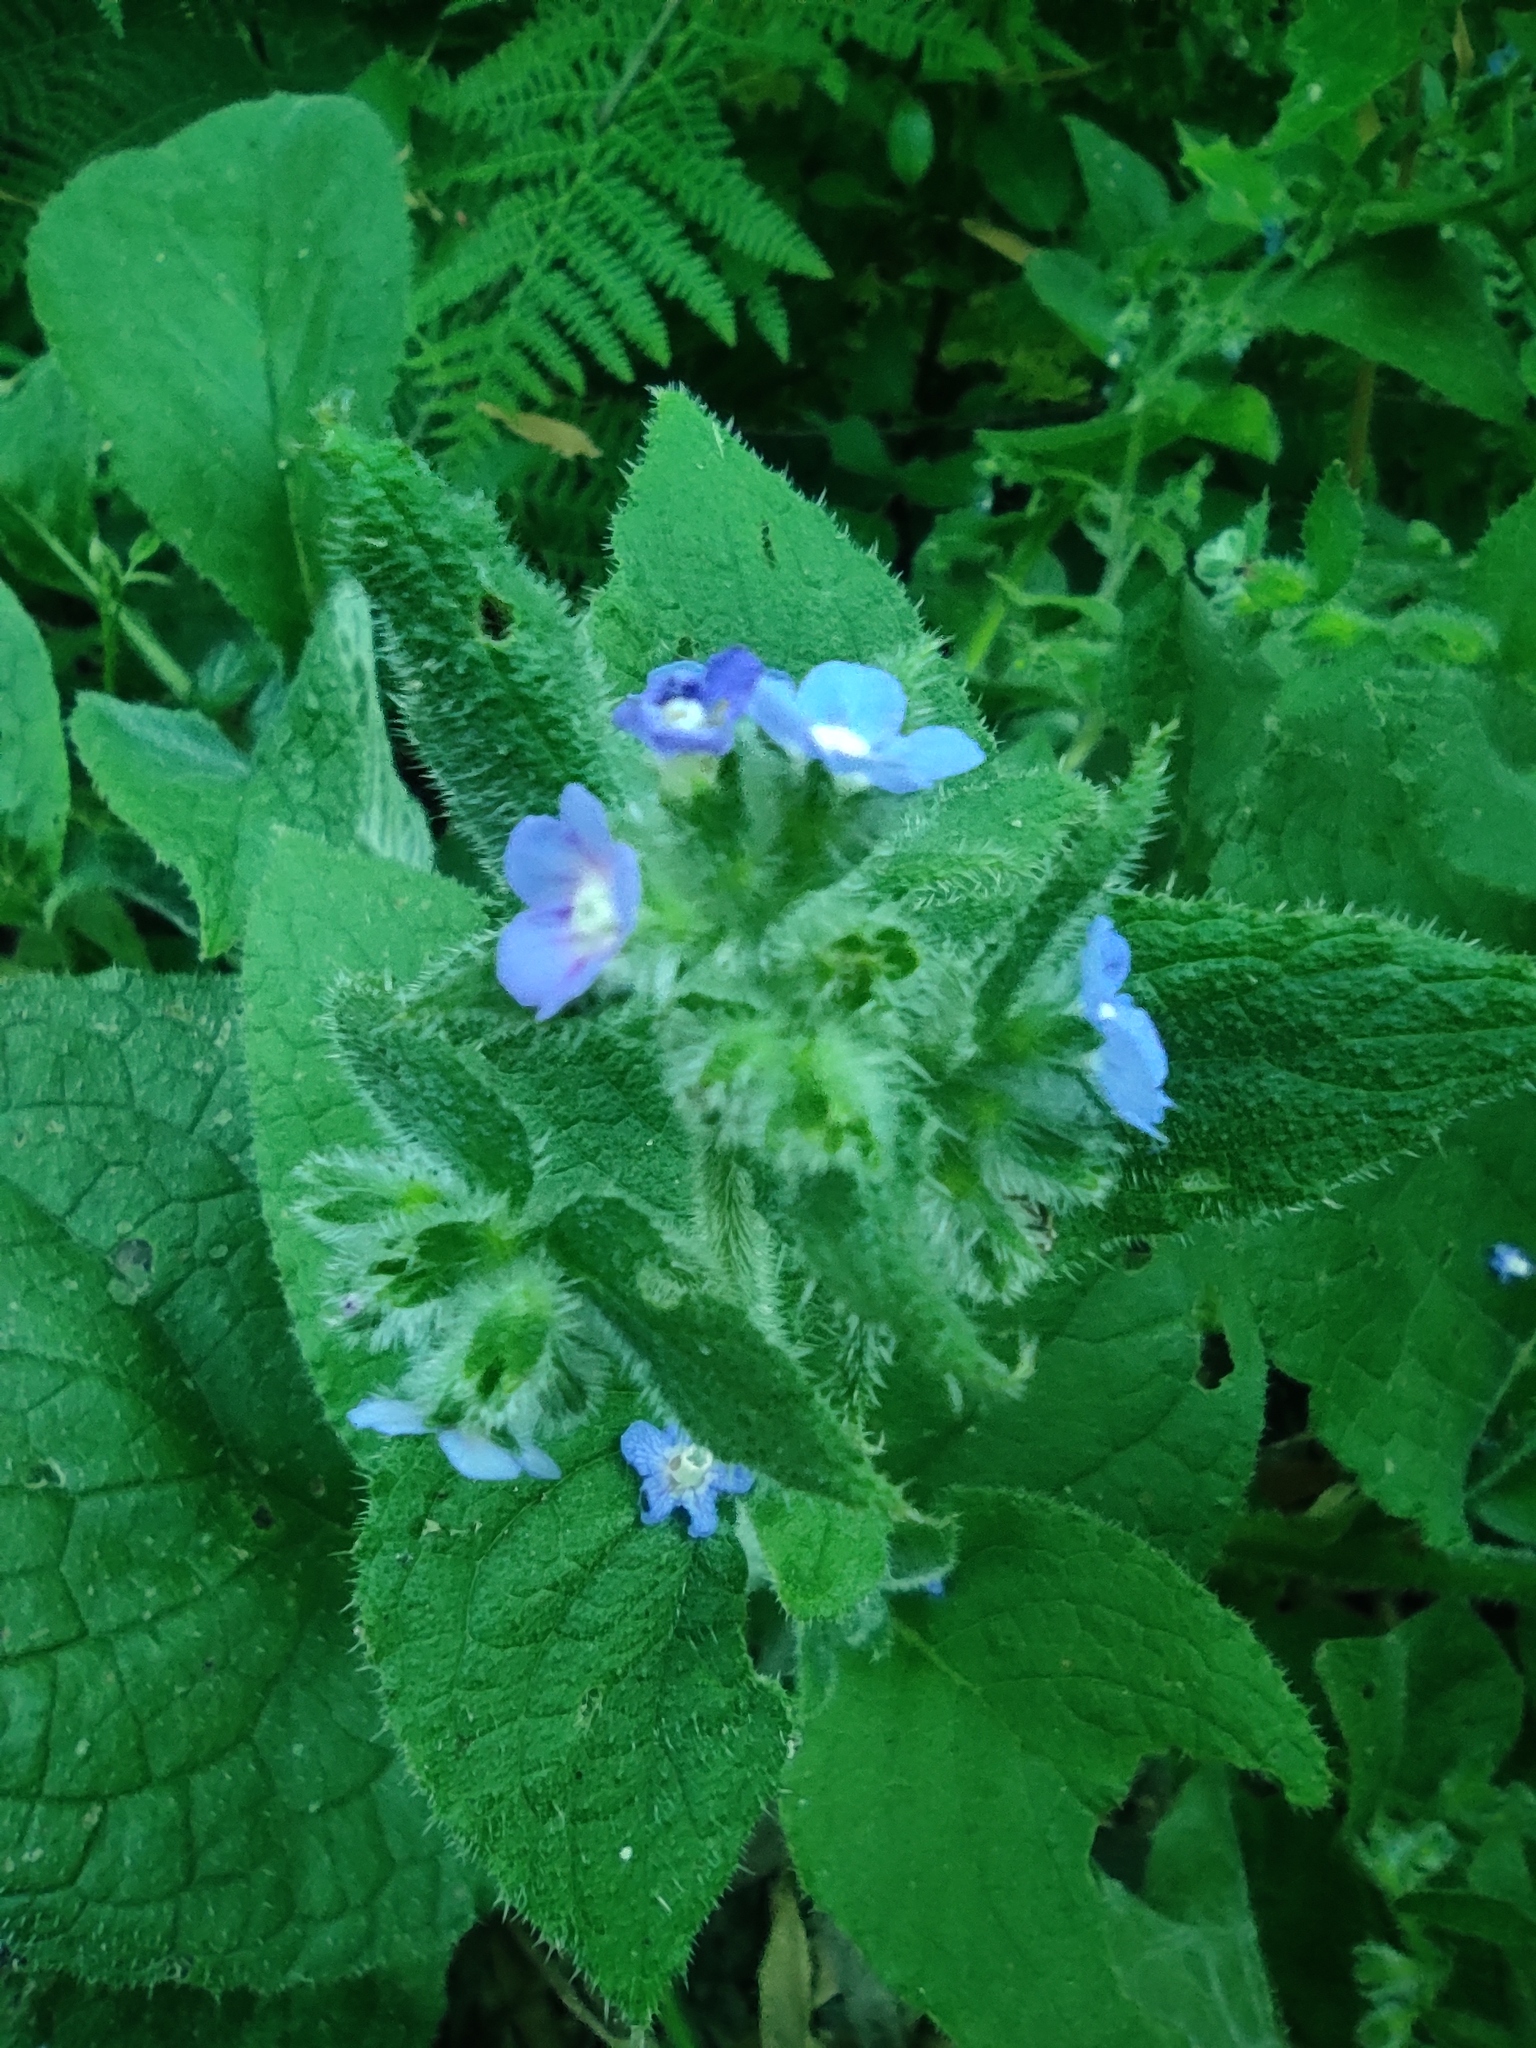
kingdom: Plantae
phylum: Tracheophyta
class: Magnoliopsida
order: Boraginales
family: Boraginaceae
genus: Pentaglottis
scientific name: Pentaglottis sempervirens
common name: Green alkanet
